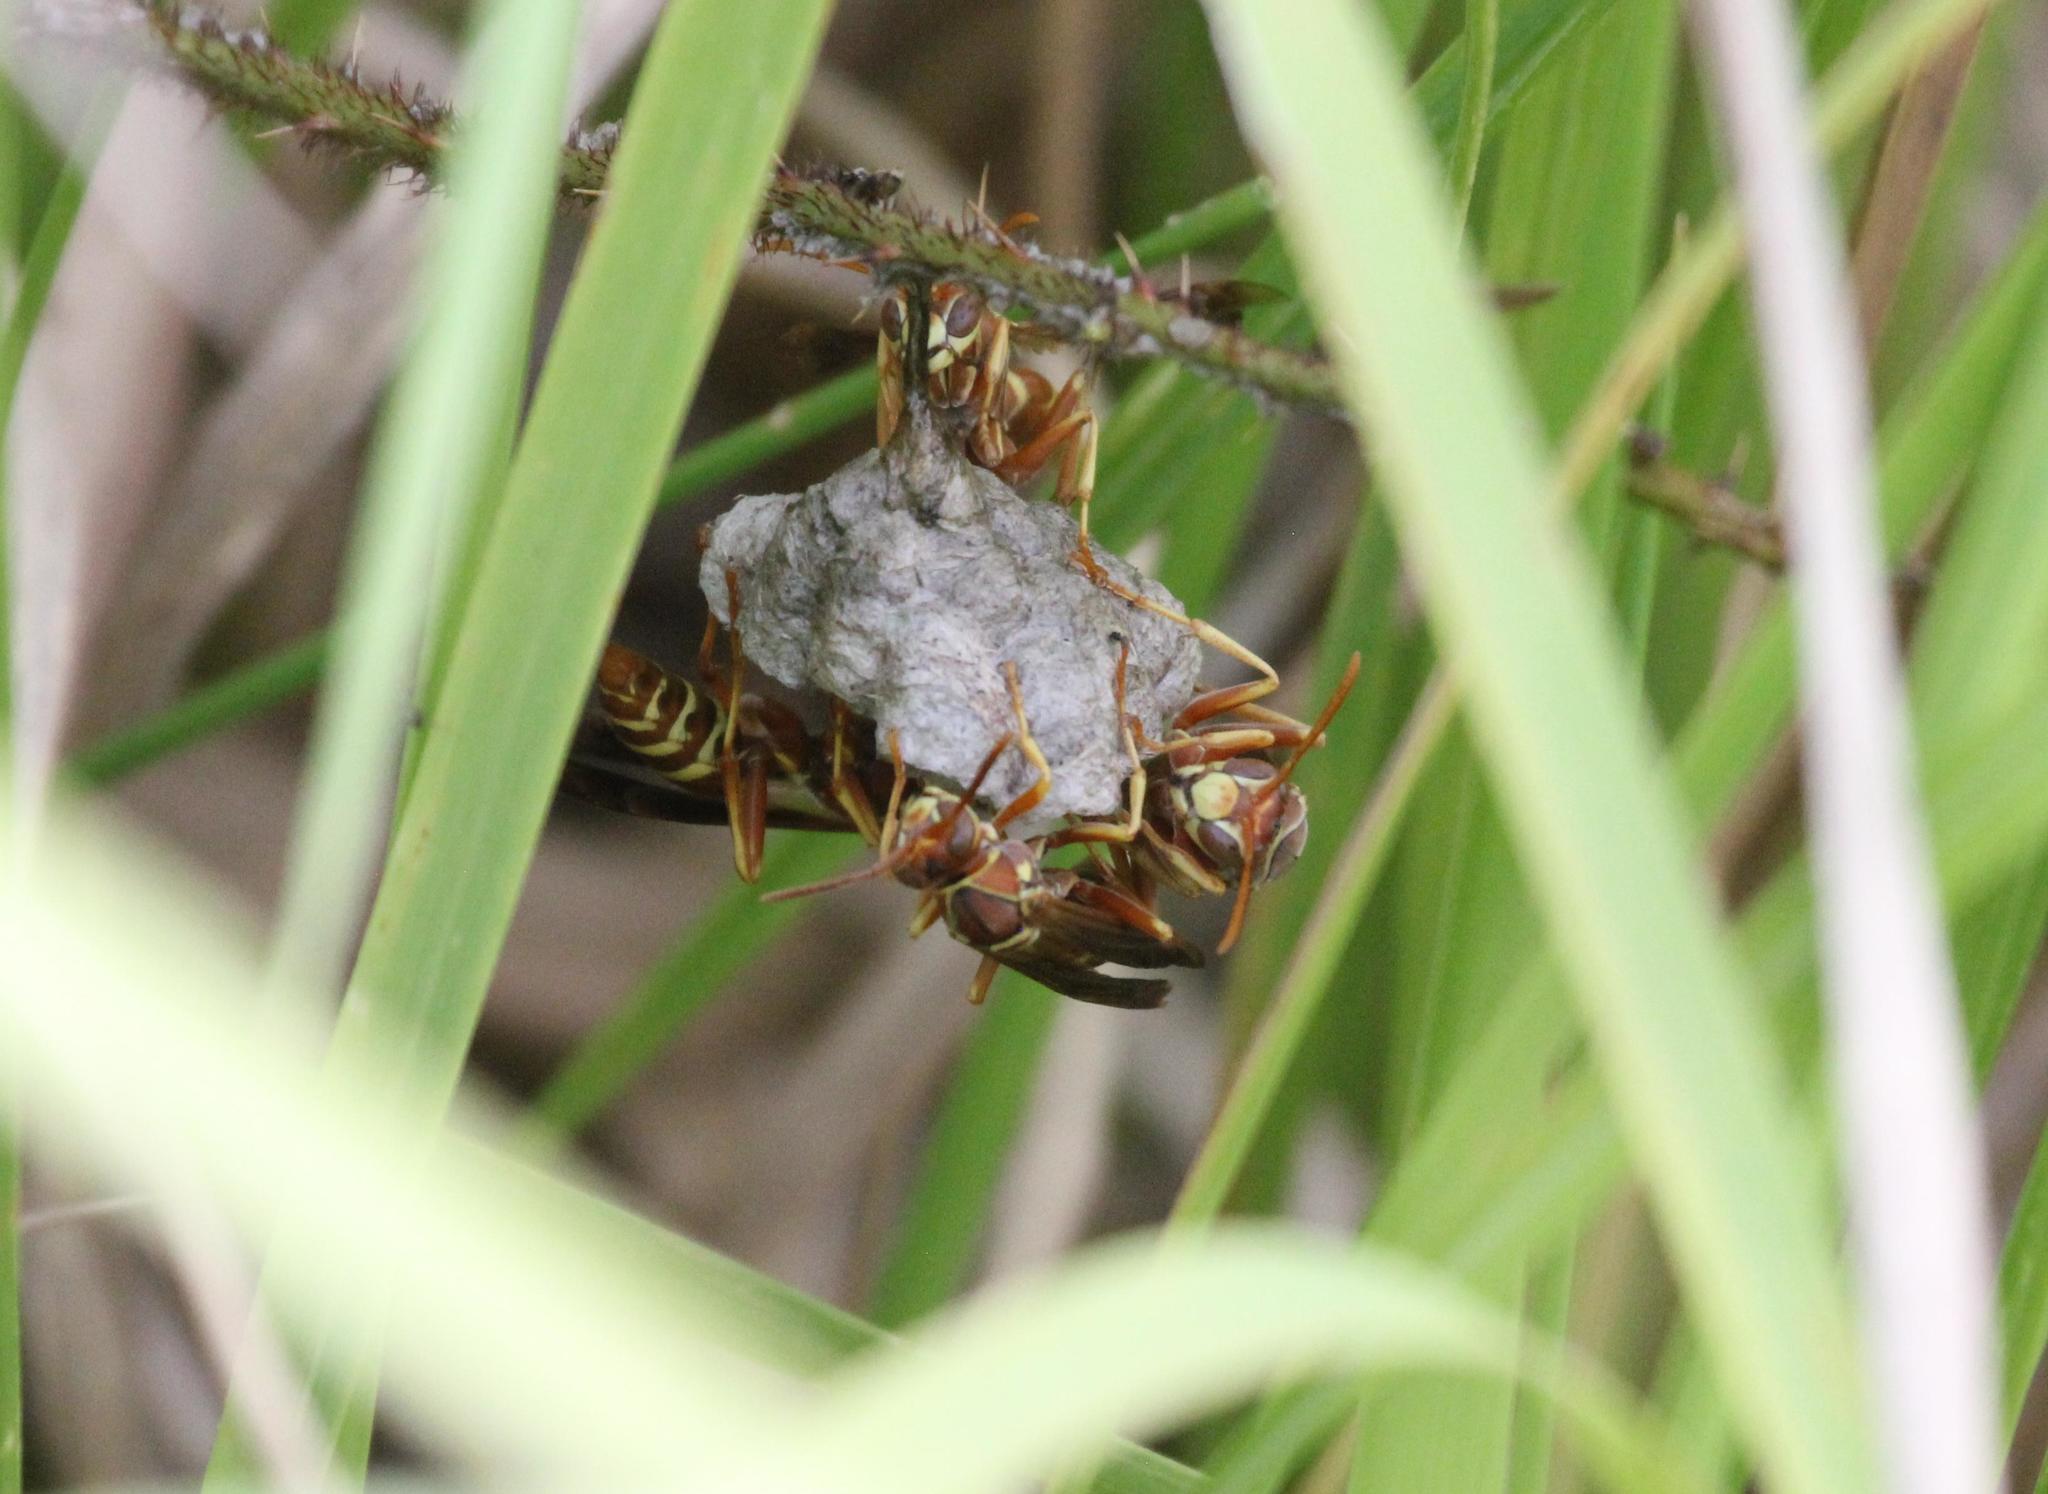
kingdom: Animalia
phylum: Arthropoda
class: Insecta
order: Hymenoptera
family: Eumenidae
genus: Polistes
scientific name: Polistes bellicosus
